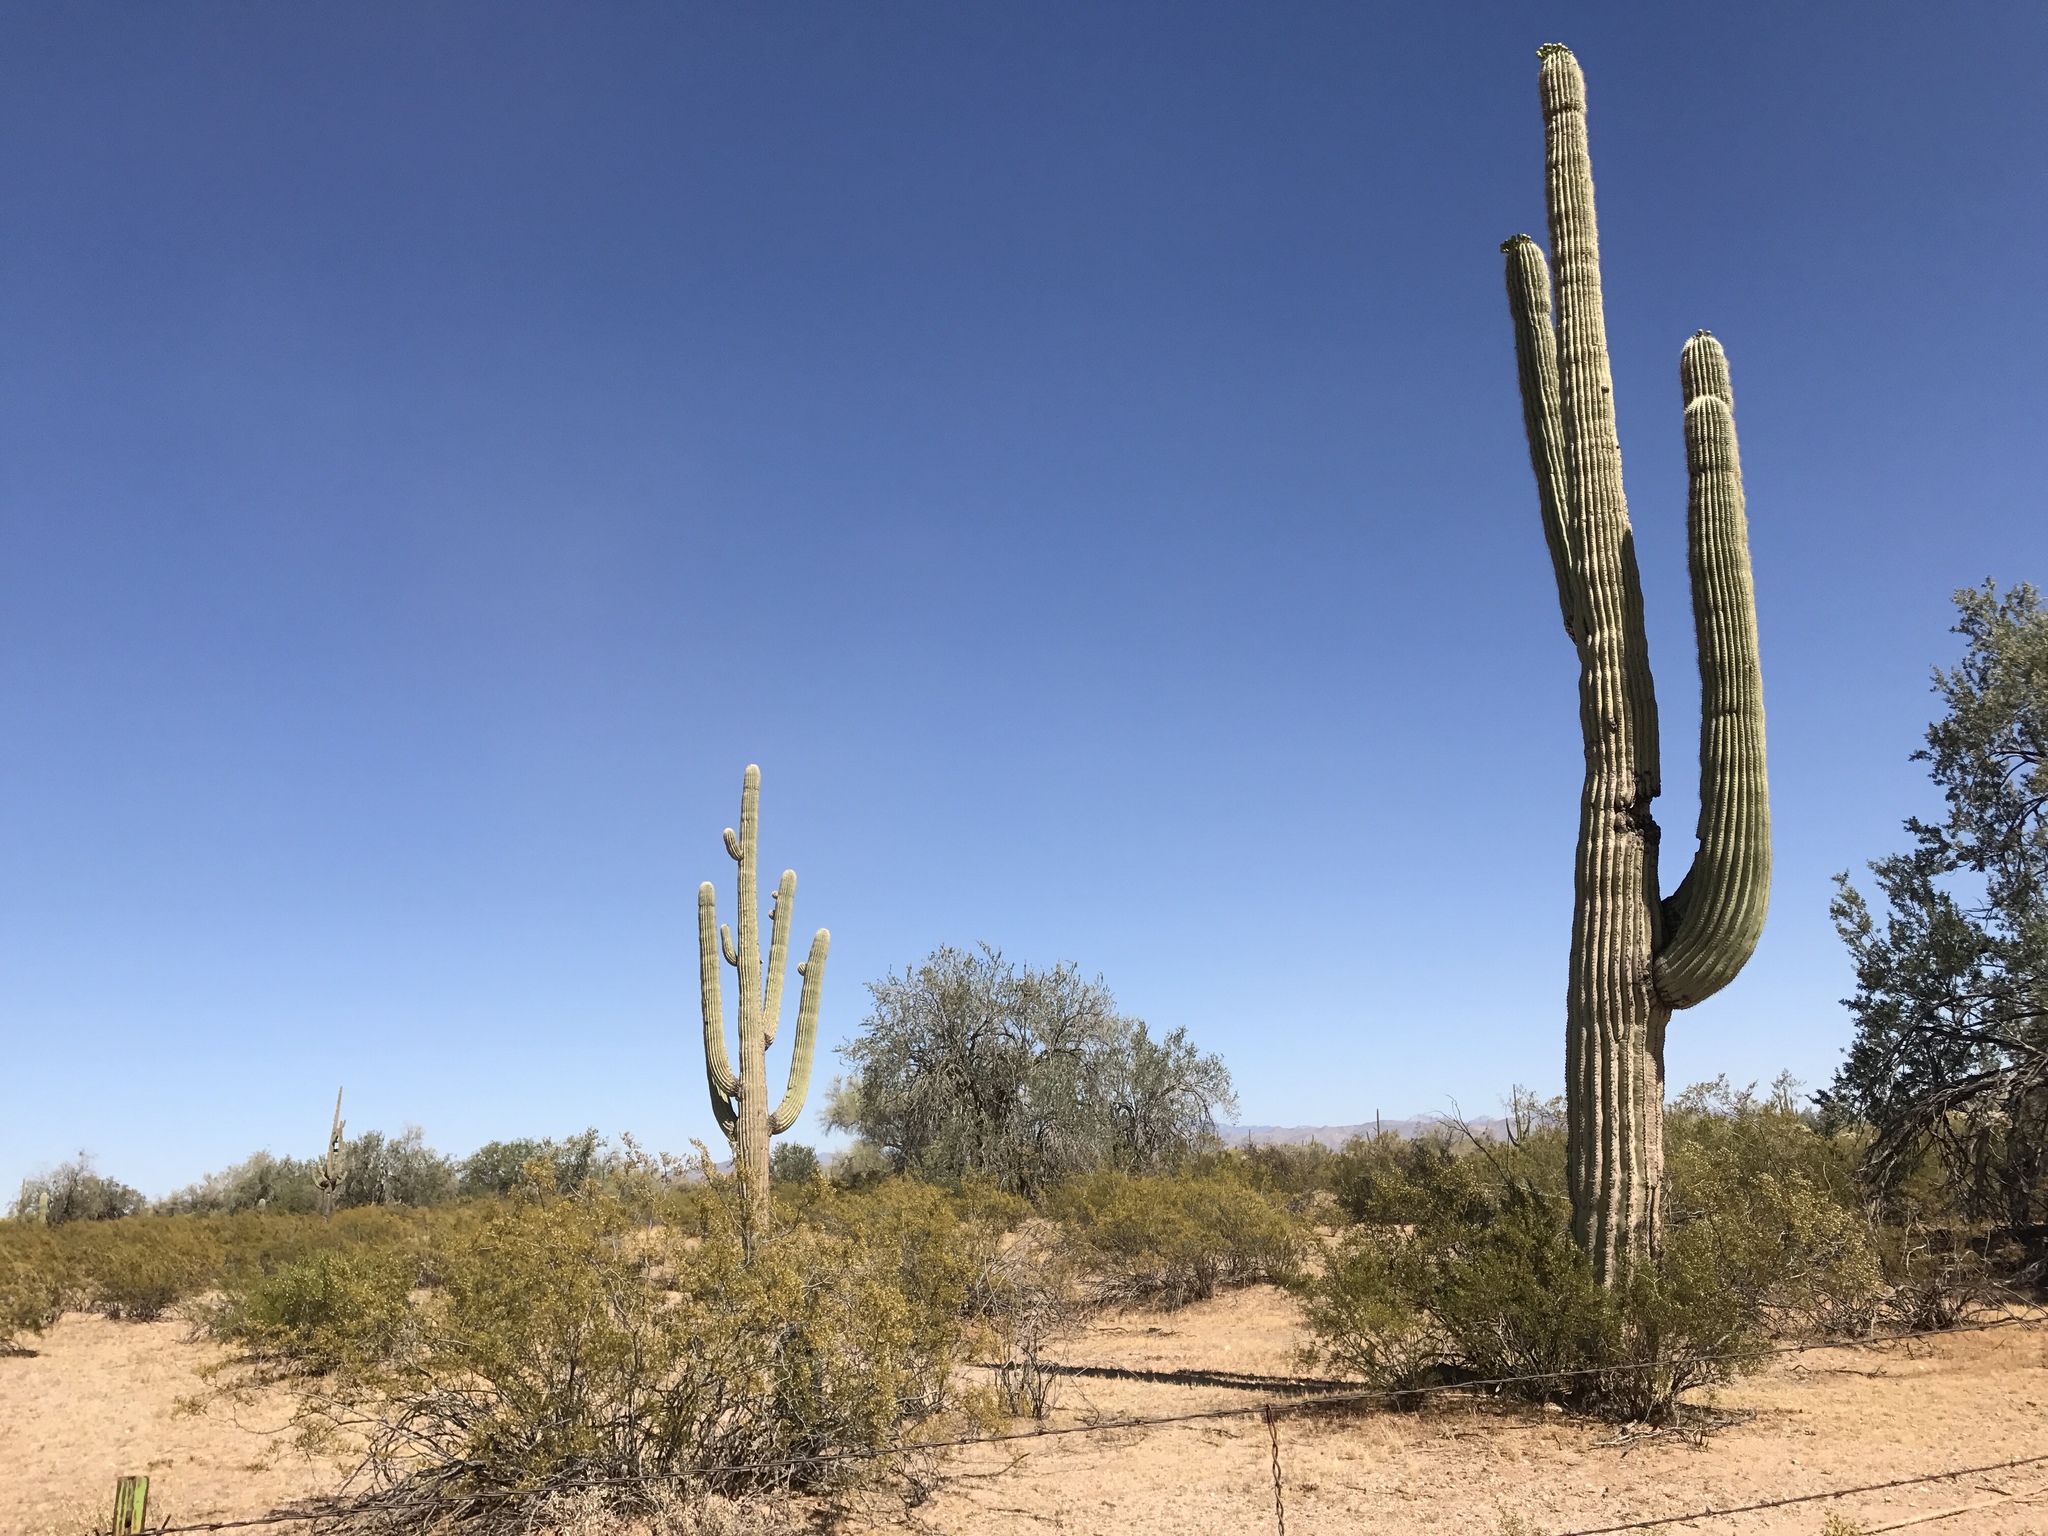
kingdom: Plantae
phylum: Tracheophyta
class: Magnoliopsida
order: Caryophyllales
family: Cactaceae
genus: Carnegiea
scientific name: Carnegiea gigantea
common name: Saguaro
